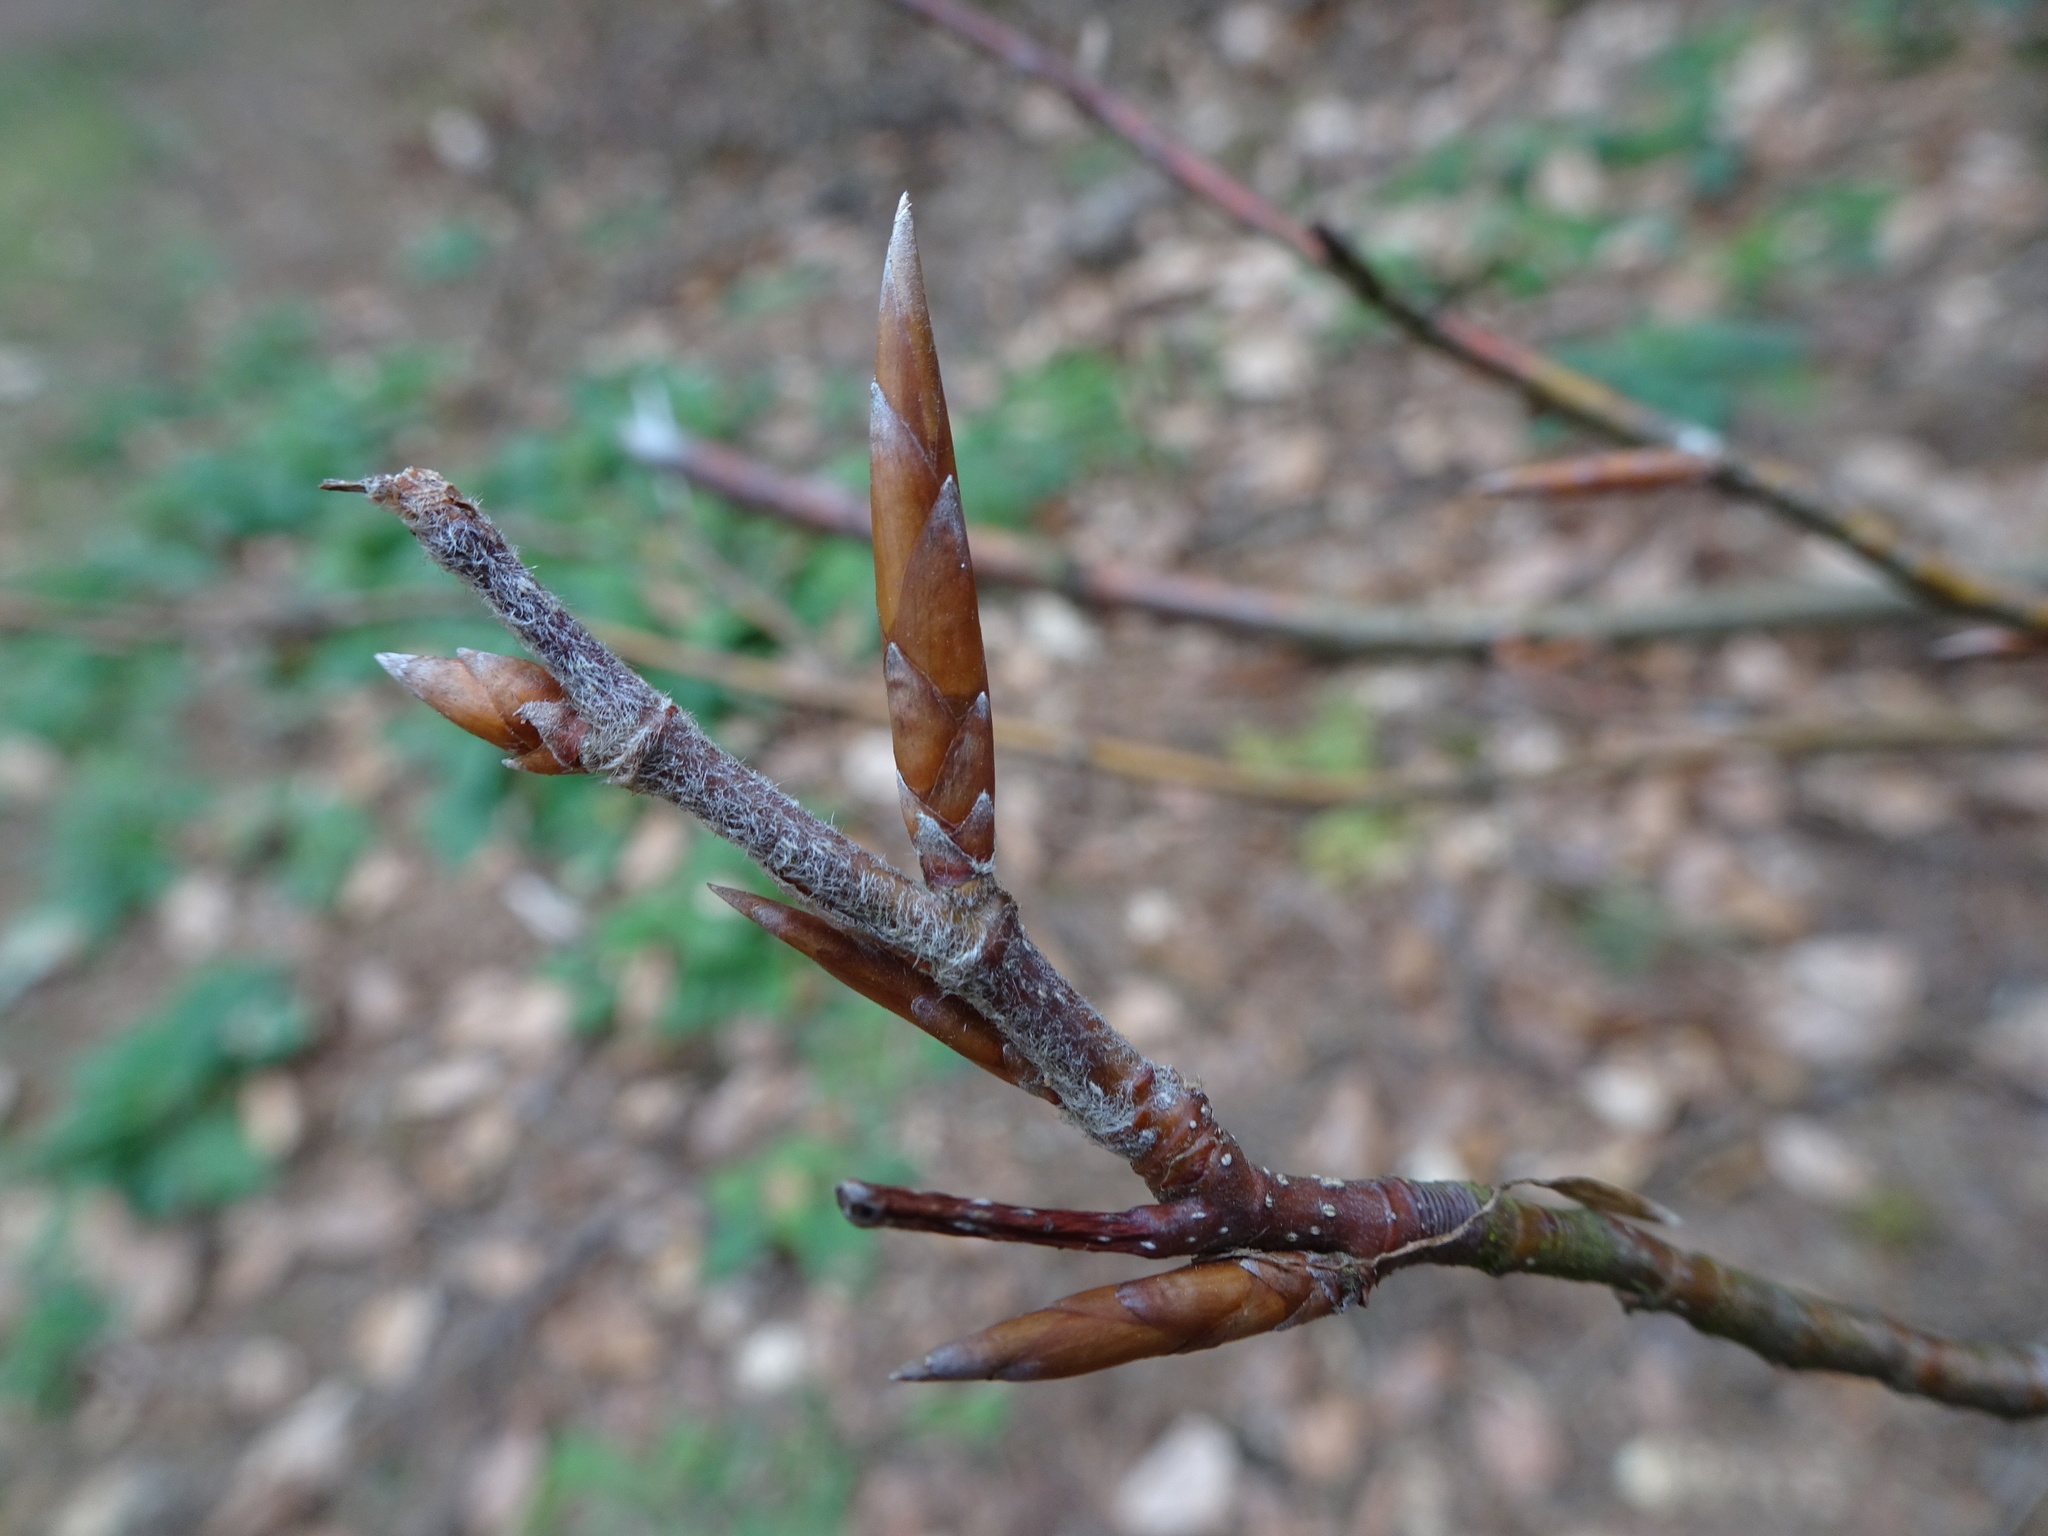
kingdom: Plantae
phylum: Tracheophyta
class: Magnoliopsida
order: Fagales
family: Fagaceae
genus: Fagus
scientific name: Fagus sylvatica
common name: Beech
